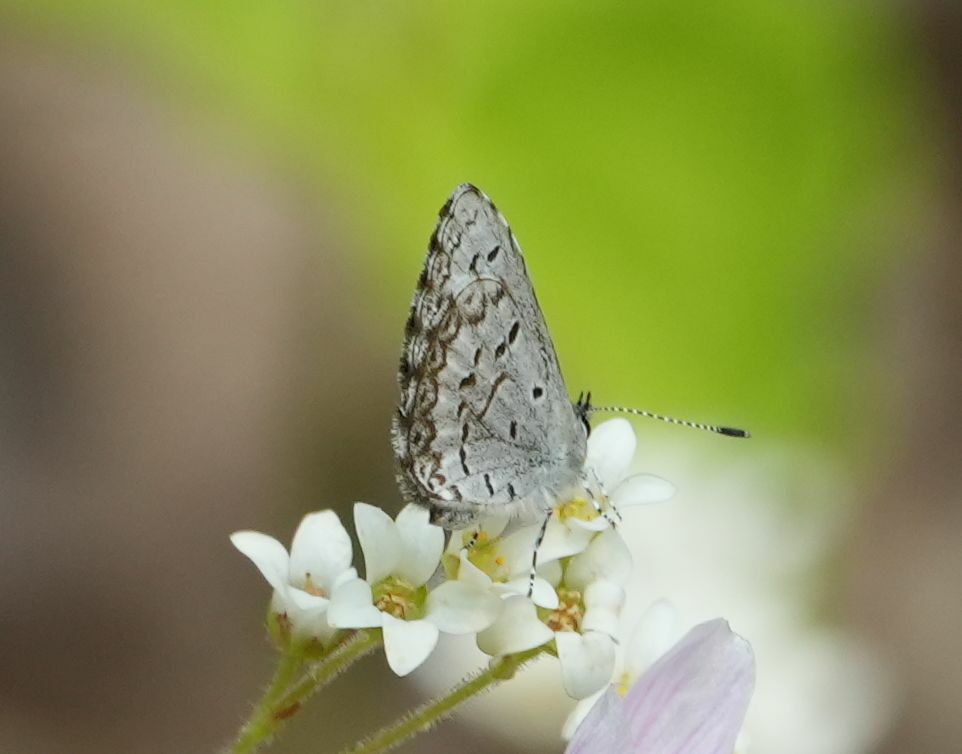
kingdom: Animalia
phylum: Arthropoda
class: Insecta
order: Lepidoptera
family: Lycaenidae
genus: Celastrina
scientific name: Celastrina lucia
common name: Lucia azure
